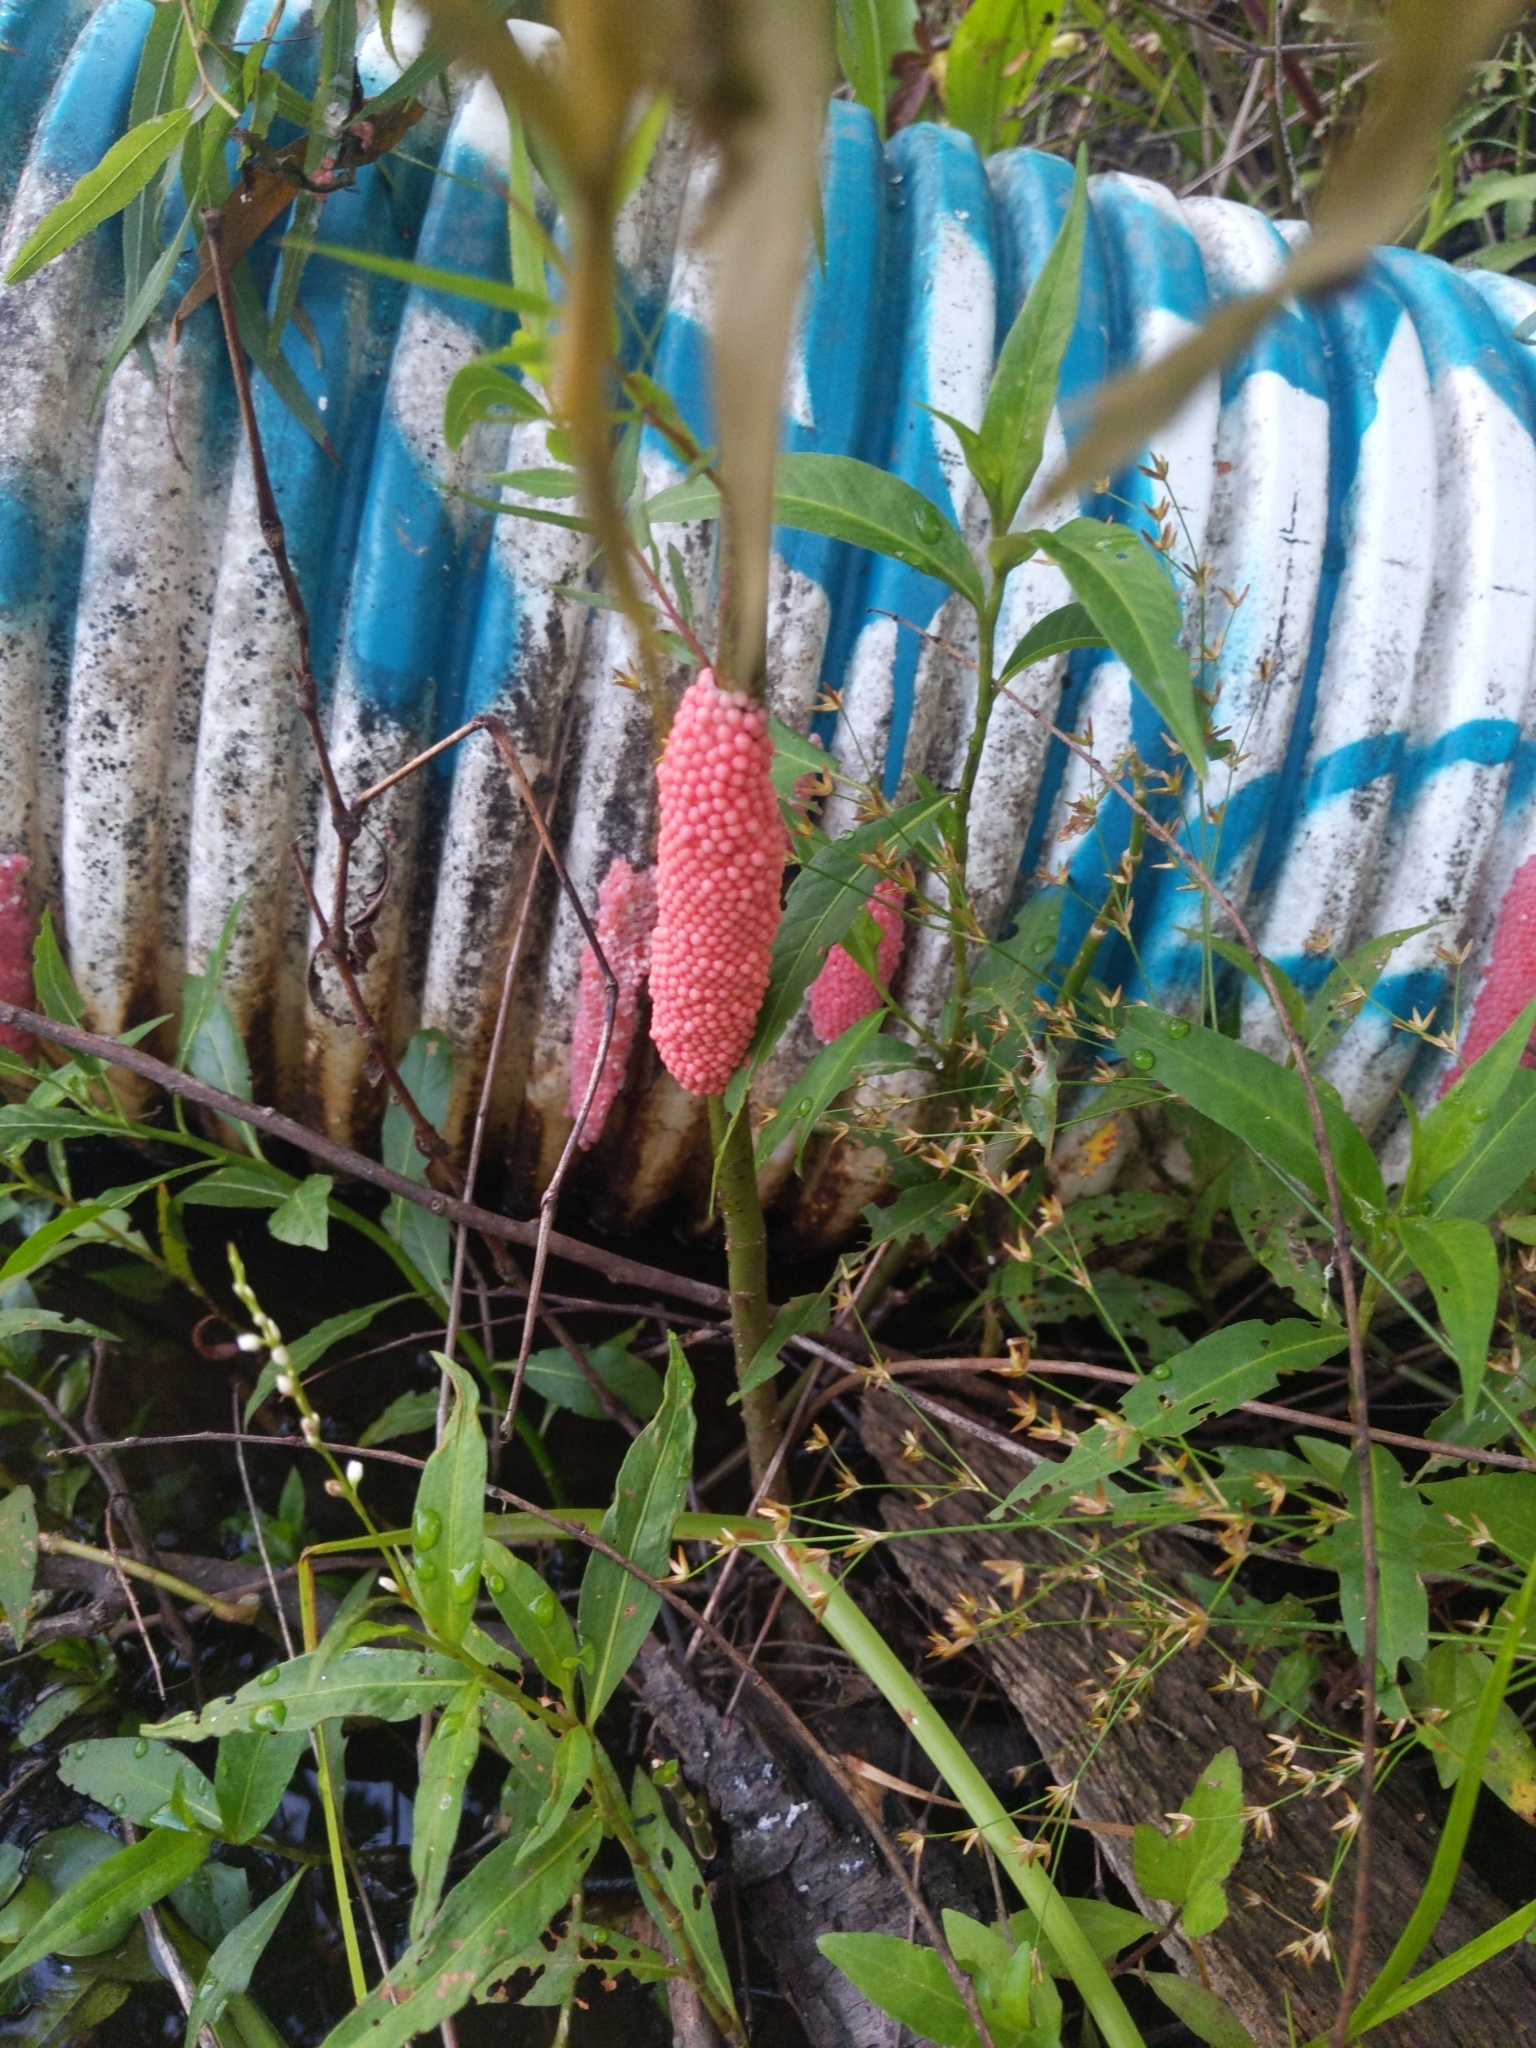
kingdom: Animalia
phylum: Mollusca
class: Gastropoda
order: Architaenioglossa
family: Ampullariidae
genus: Pomacea
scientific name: Pomacea maculata
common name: Giant applesnail
